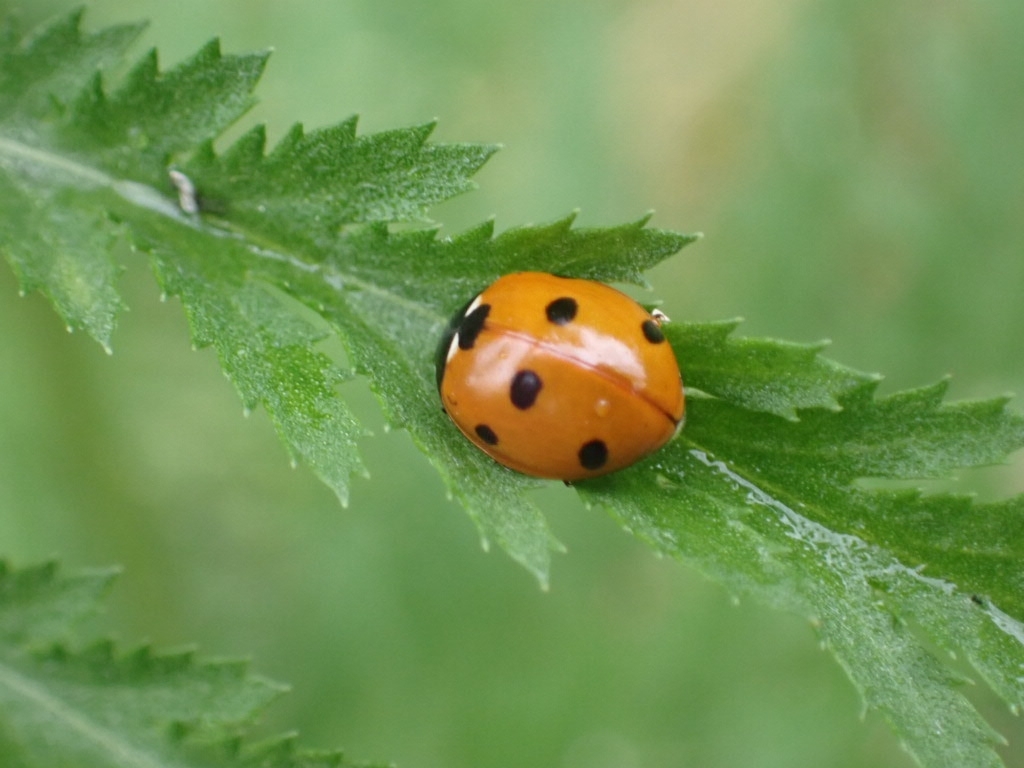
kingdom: Animalia
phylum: Arthropoda
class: Insecta
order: Coleoptera
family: Coccinellidae
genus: Coccinella
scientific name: Coccinella septempunctata
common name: Sevenspotted lady beetle
